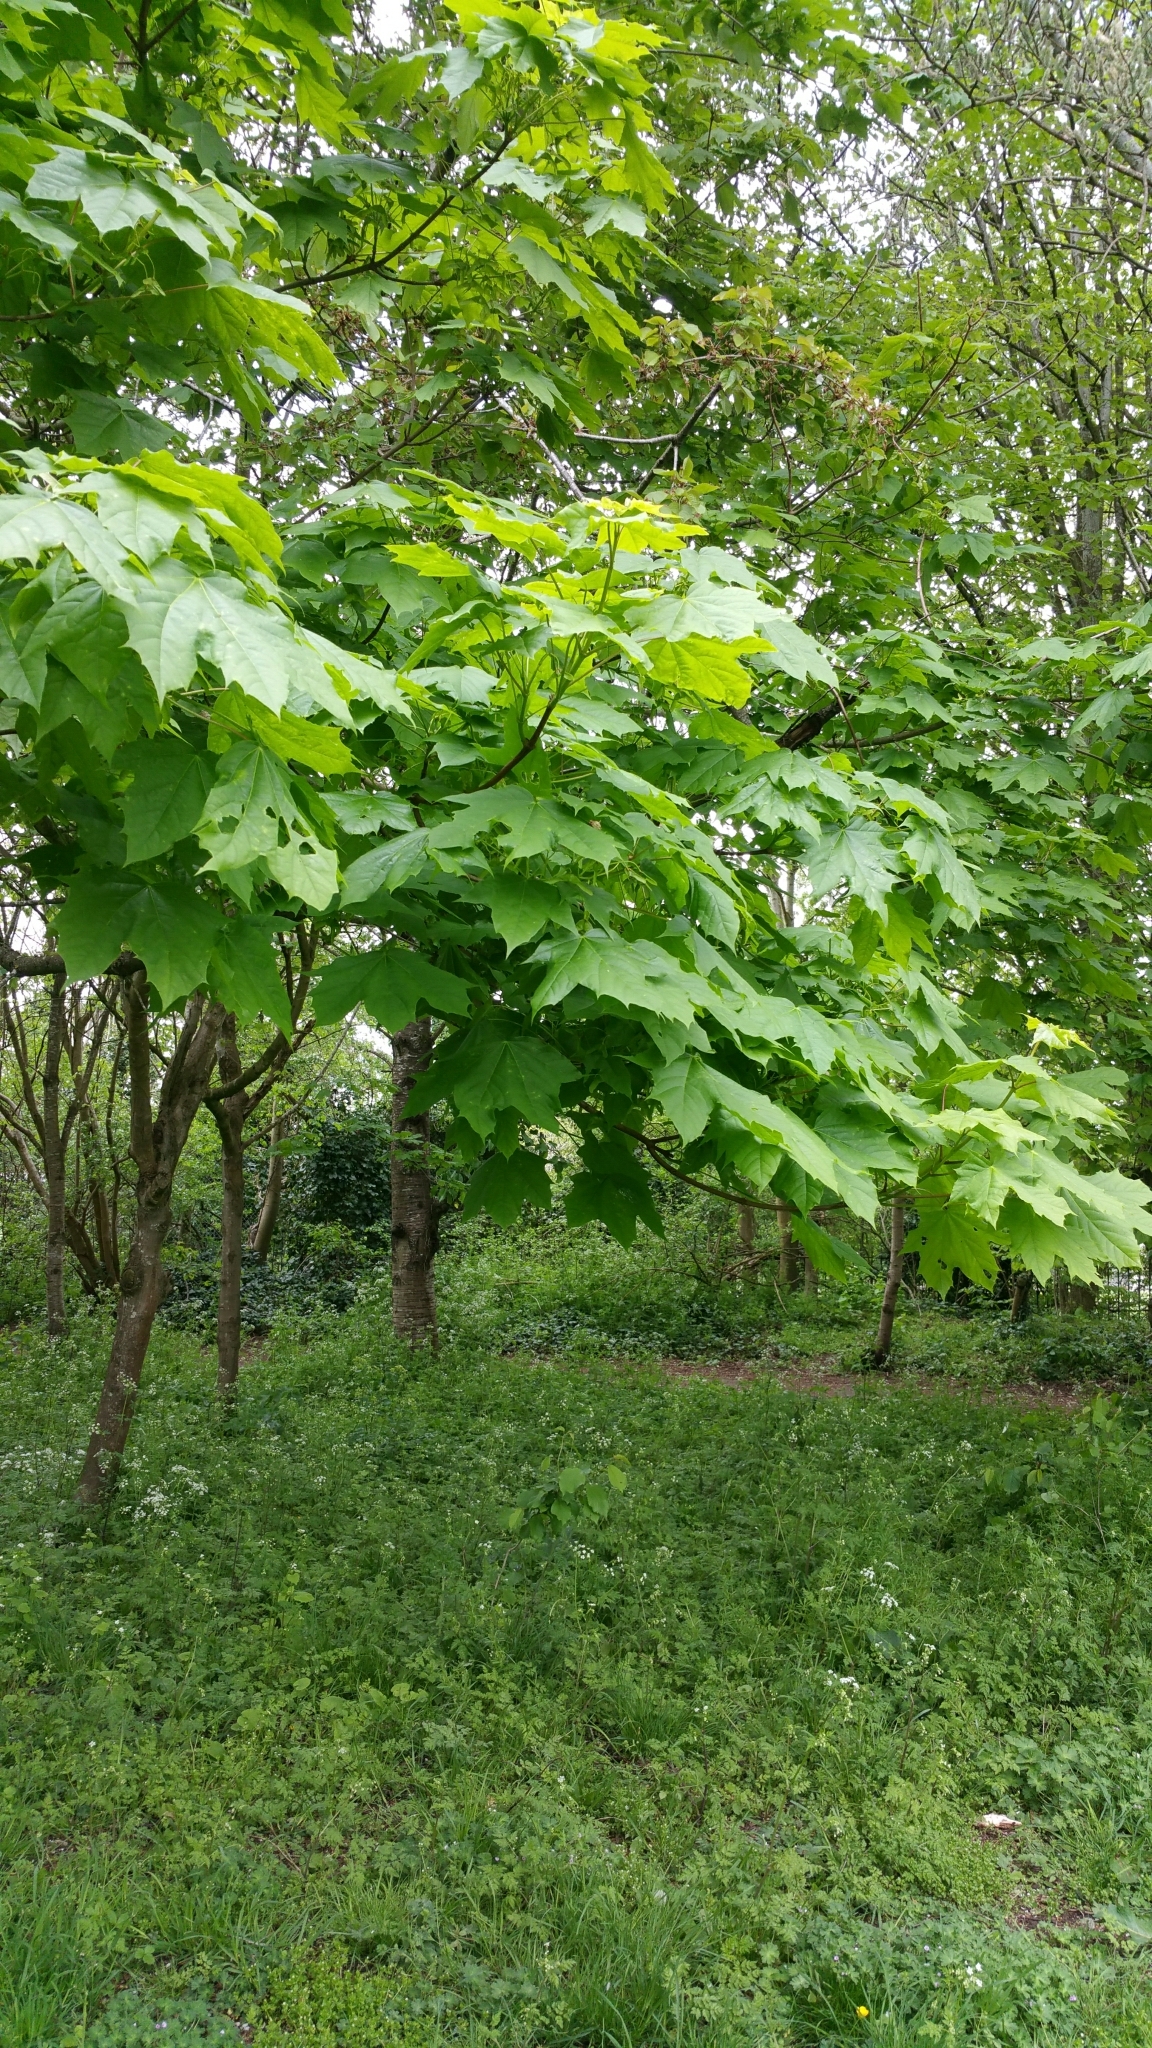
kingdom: Plantae
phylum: Tracheophyta
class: Magnoliopsida
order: Sapindales
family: Sapindaceae
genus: Acer
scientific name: Acer platanoides
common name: Norway maple
